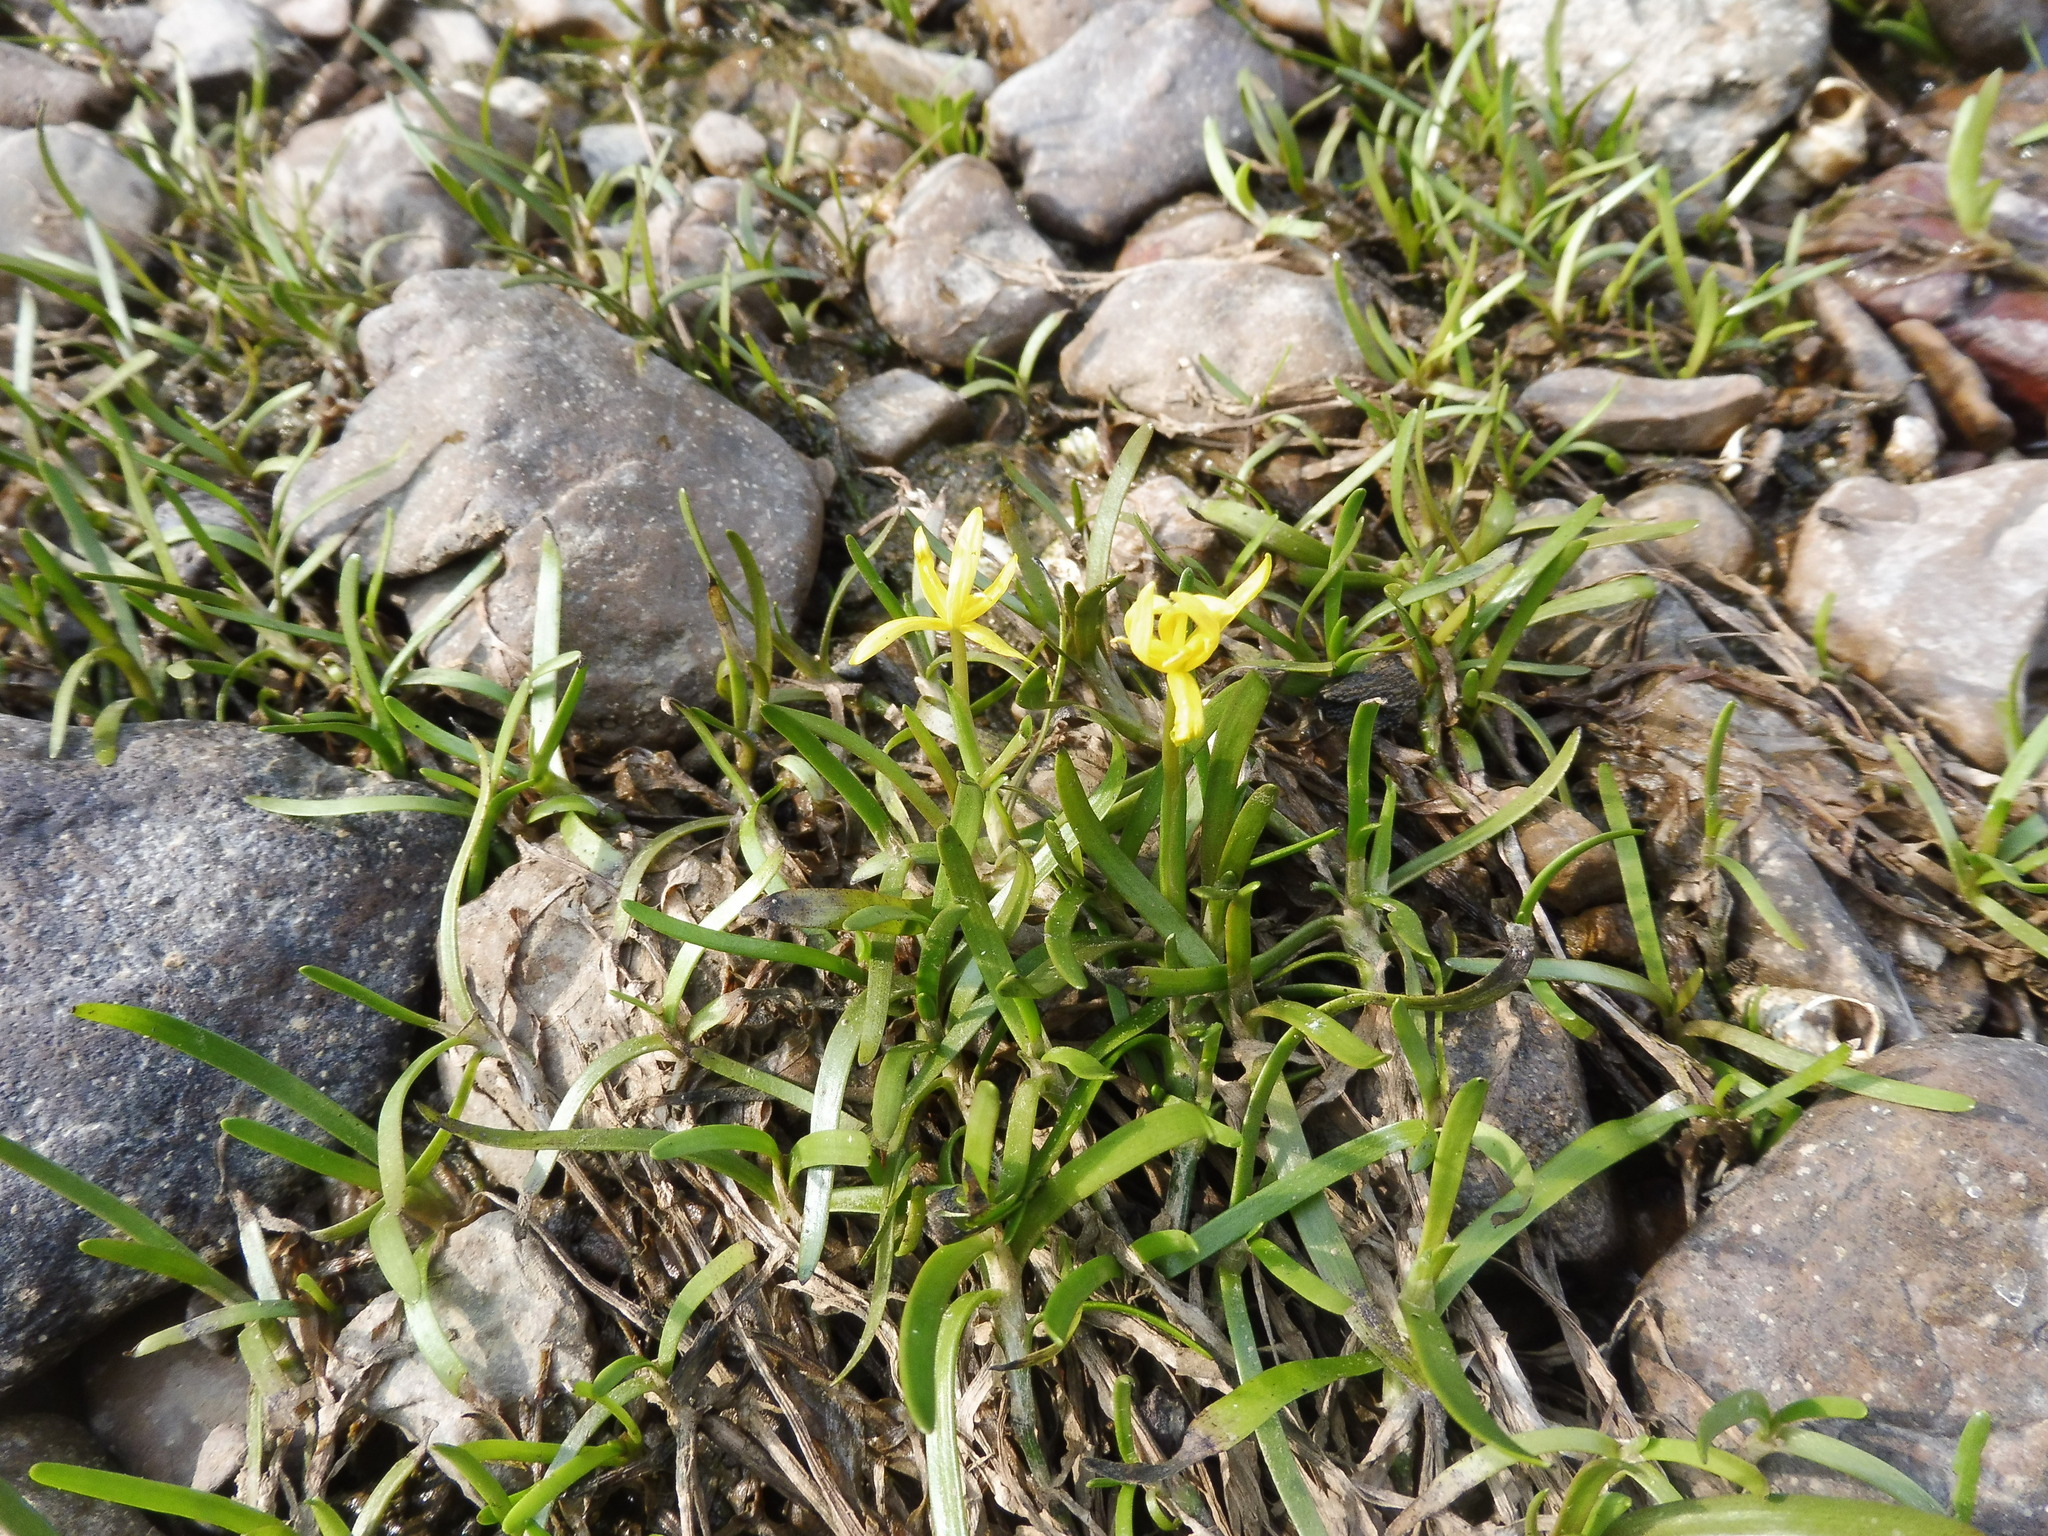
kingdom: Plantae
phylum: Tracheophyta
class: Liliopsida
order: Commelinales
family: Pontederiaceae
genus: Heteranthera
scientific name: Heteranthera dubia
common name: Grass-leaved mud plantain
